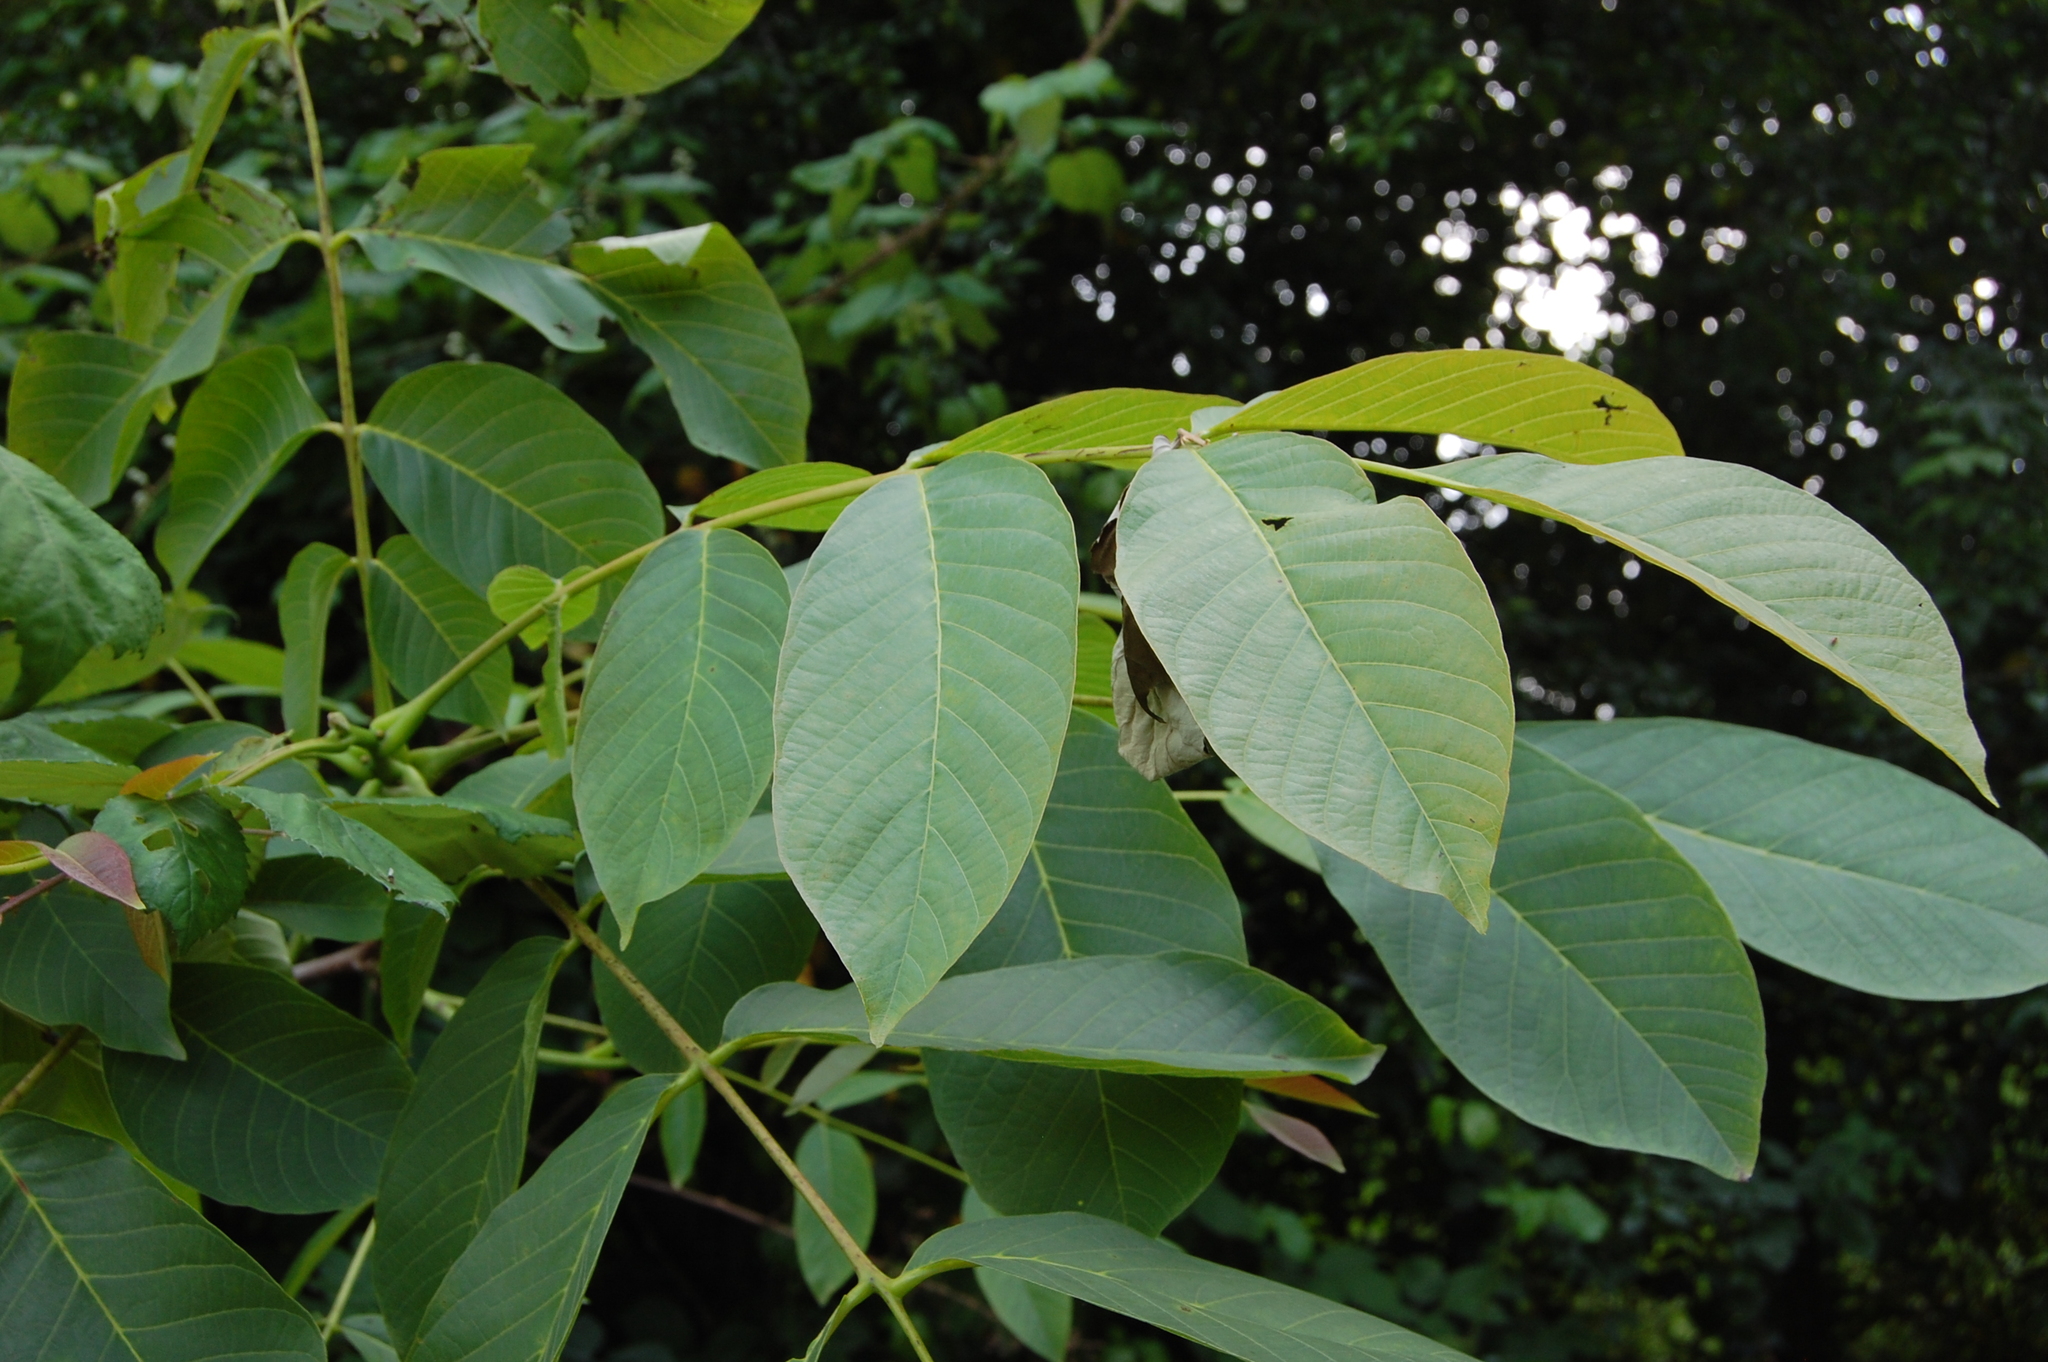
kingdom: Plantae
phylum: Tracheophyta
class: Magnoliopsida
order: Fagales
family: Juglandaceae
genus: Juglans
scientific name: Juglans regia
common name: Walnut
